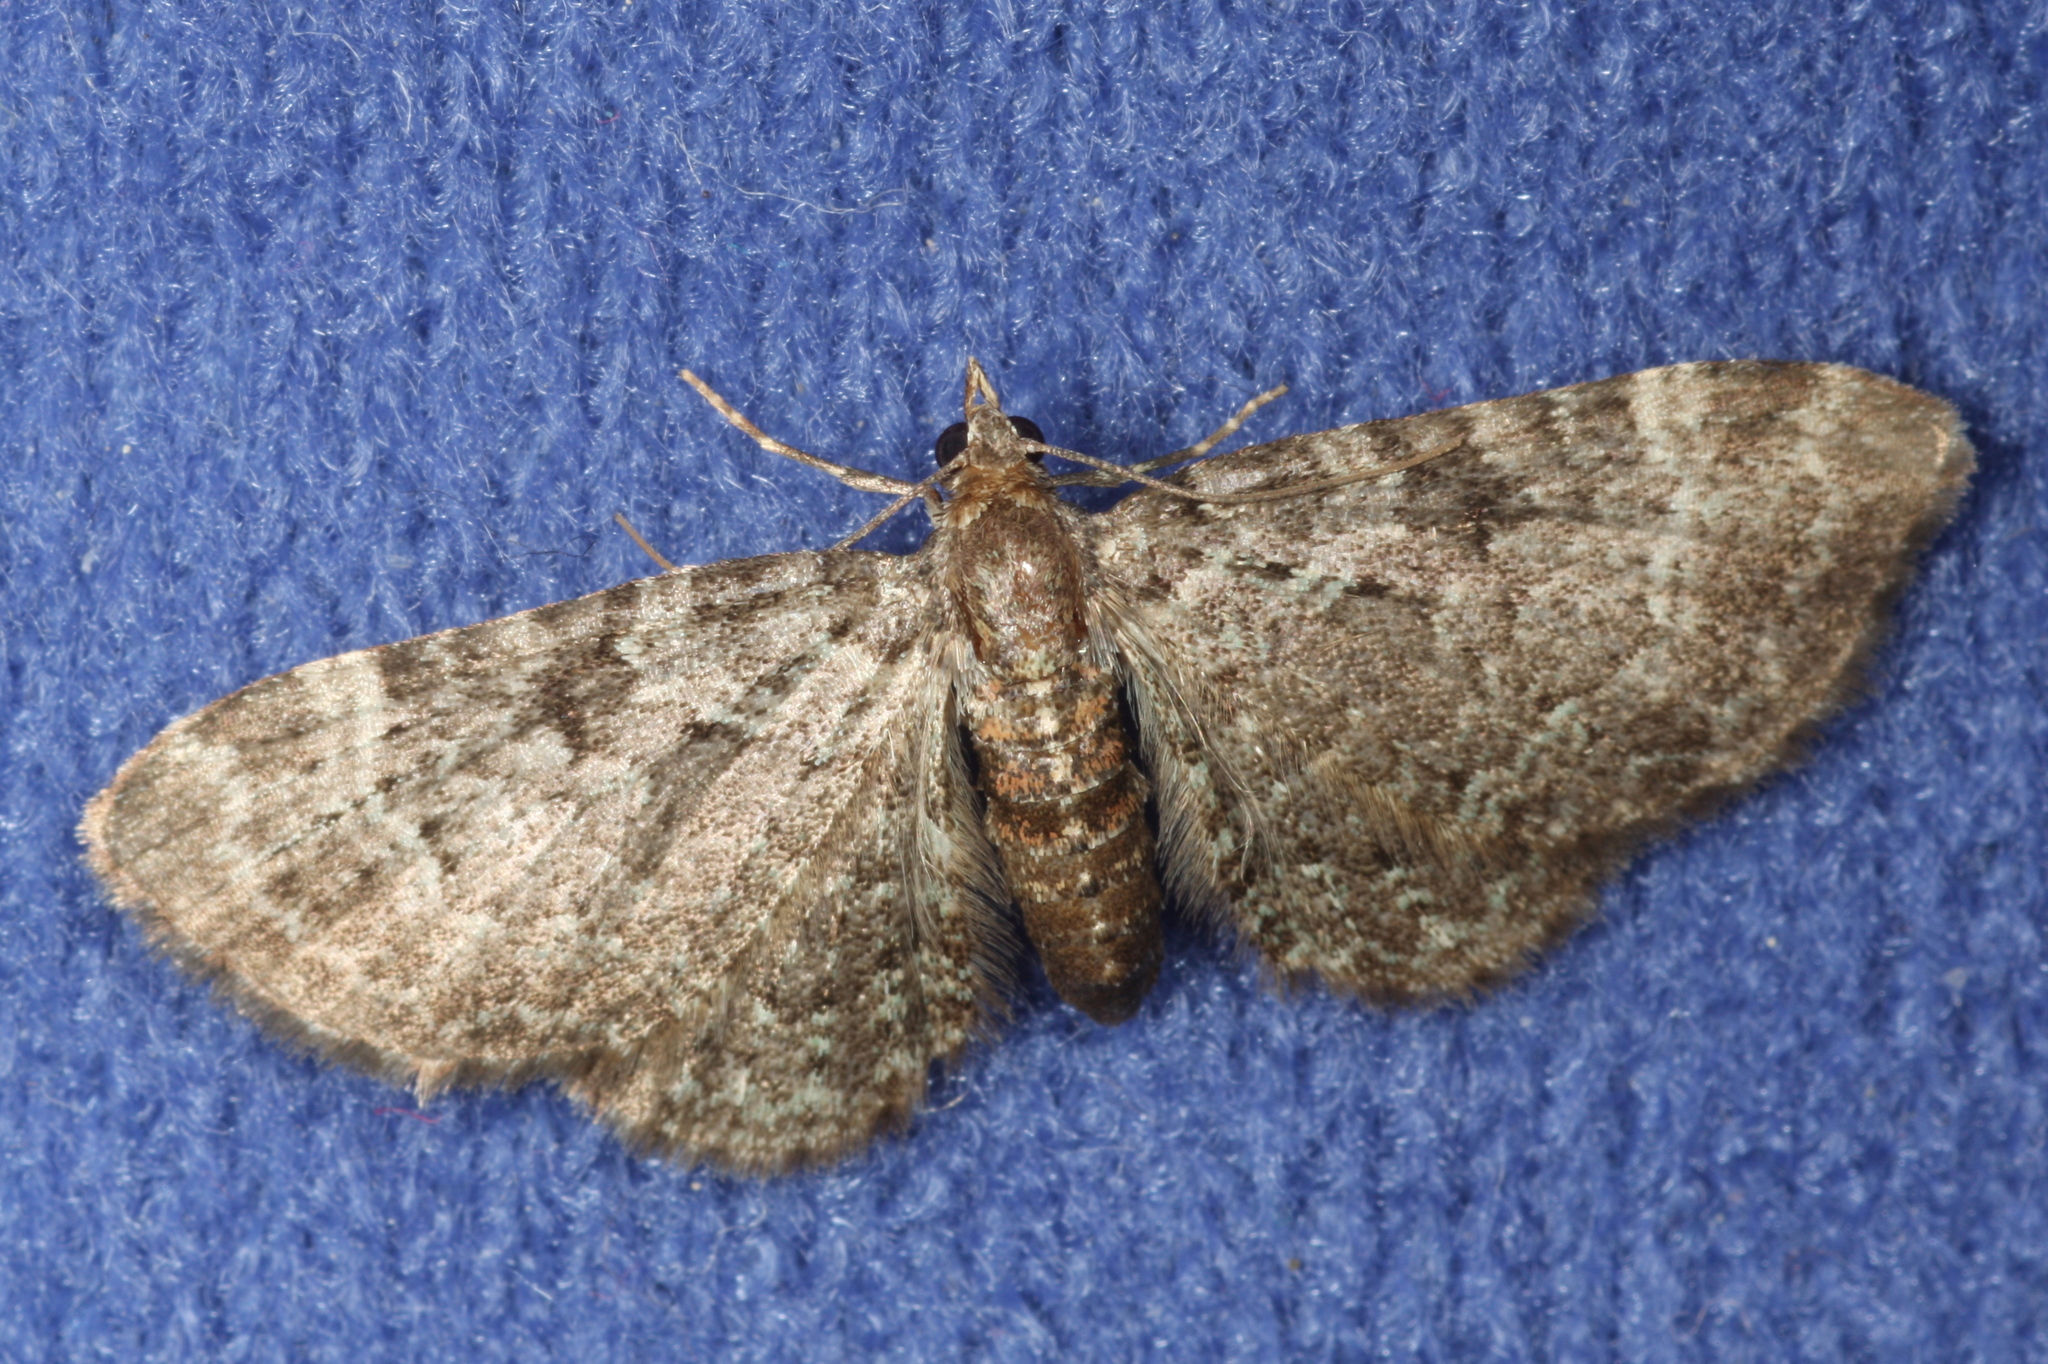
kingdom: Animalia
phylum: Arthropoda
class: Insecta
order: Lepidoptera
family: Geometridae
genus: Pasiphila
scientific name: Pasiphila chloerata
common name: Sloe pug
